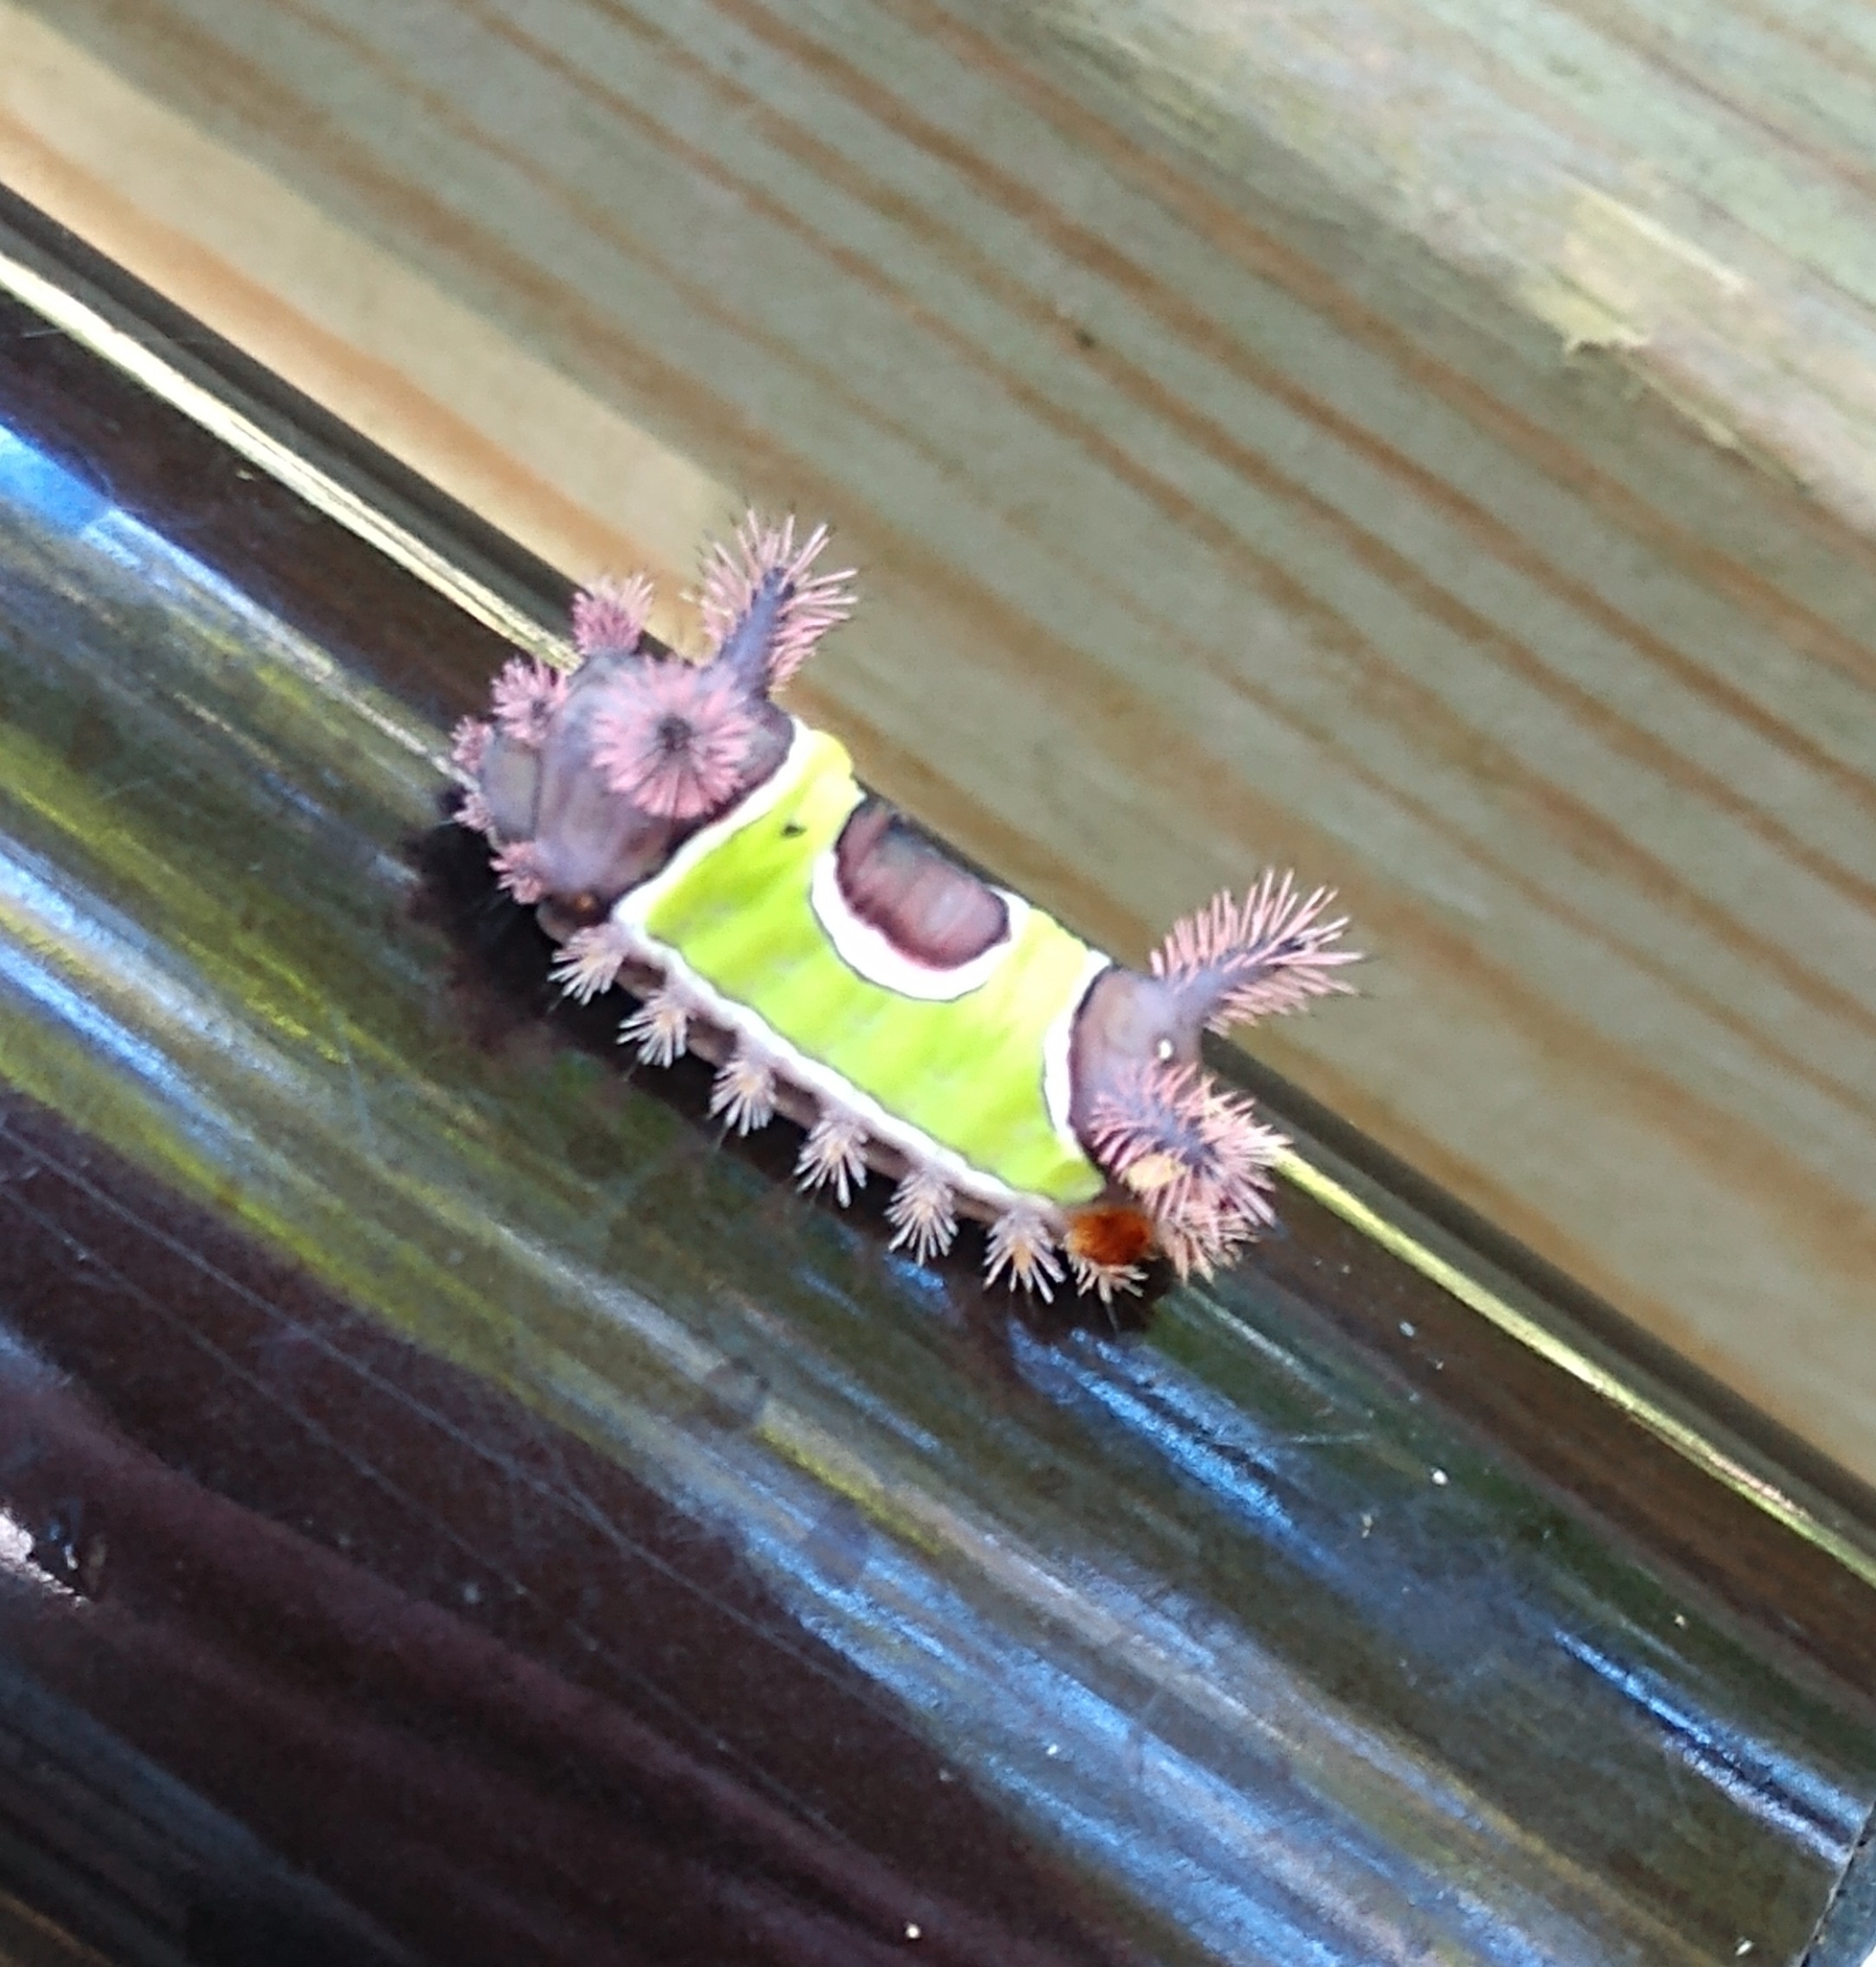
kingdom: Animalia
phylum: Arthropoda
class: Insecta
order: Lepidoptera
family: Limacodidae
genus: Acharia
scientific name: Acharia stimulea
